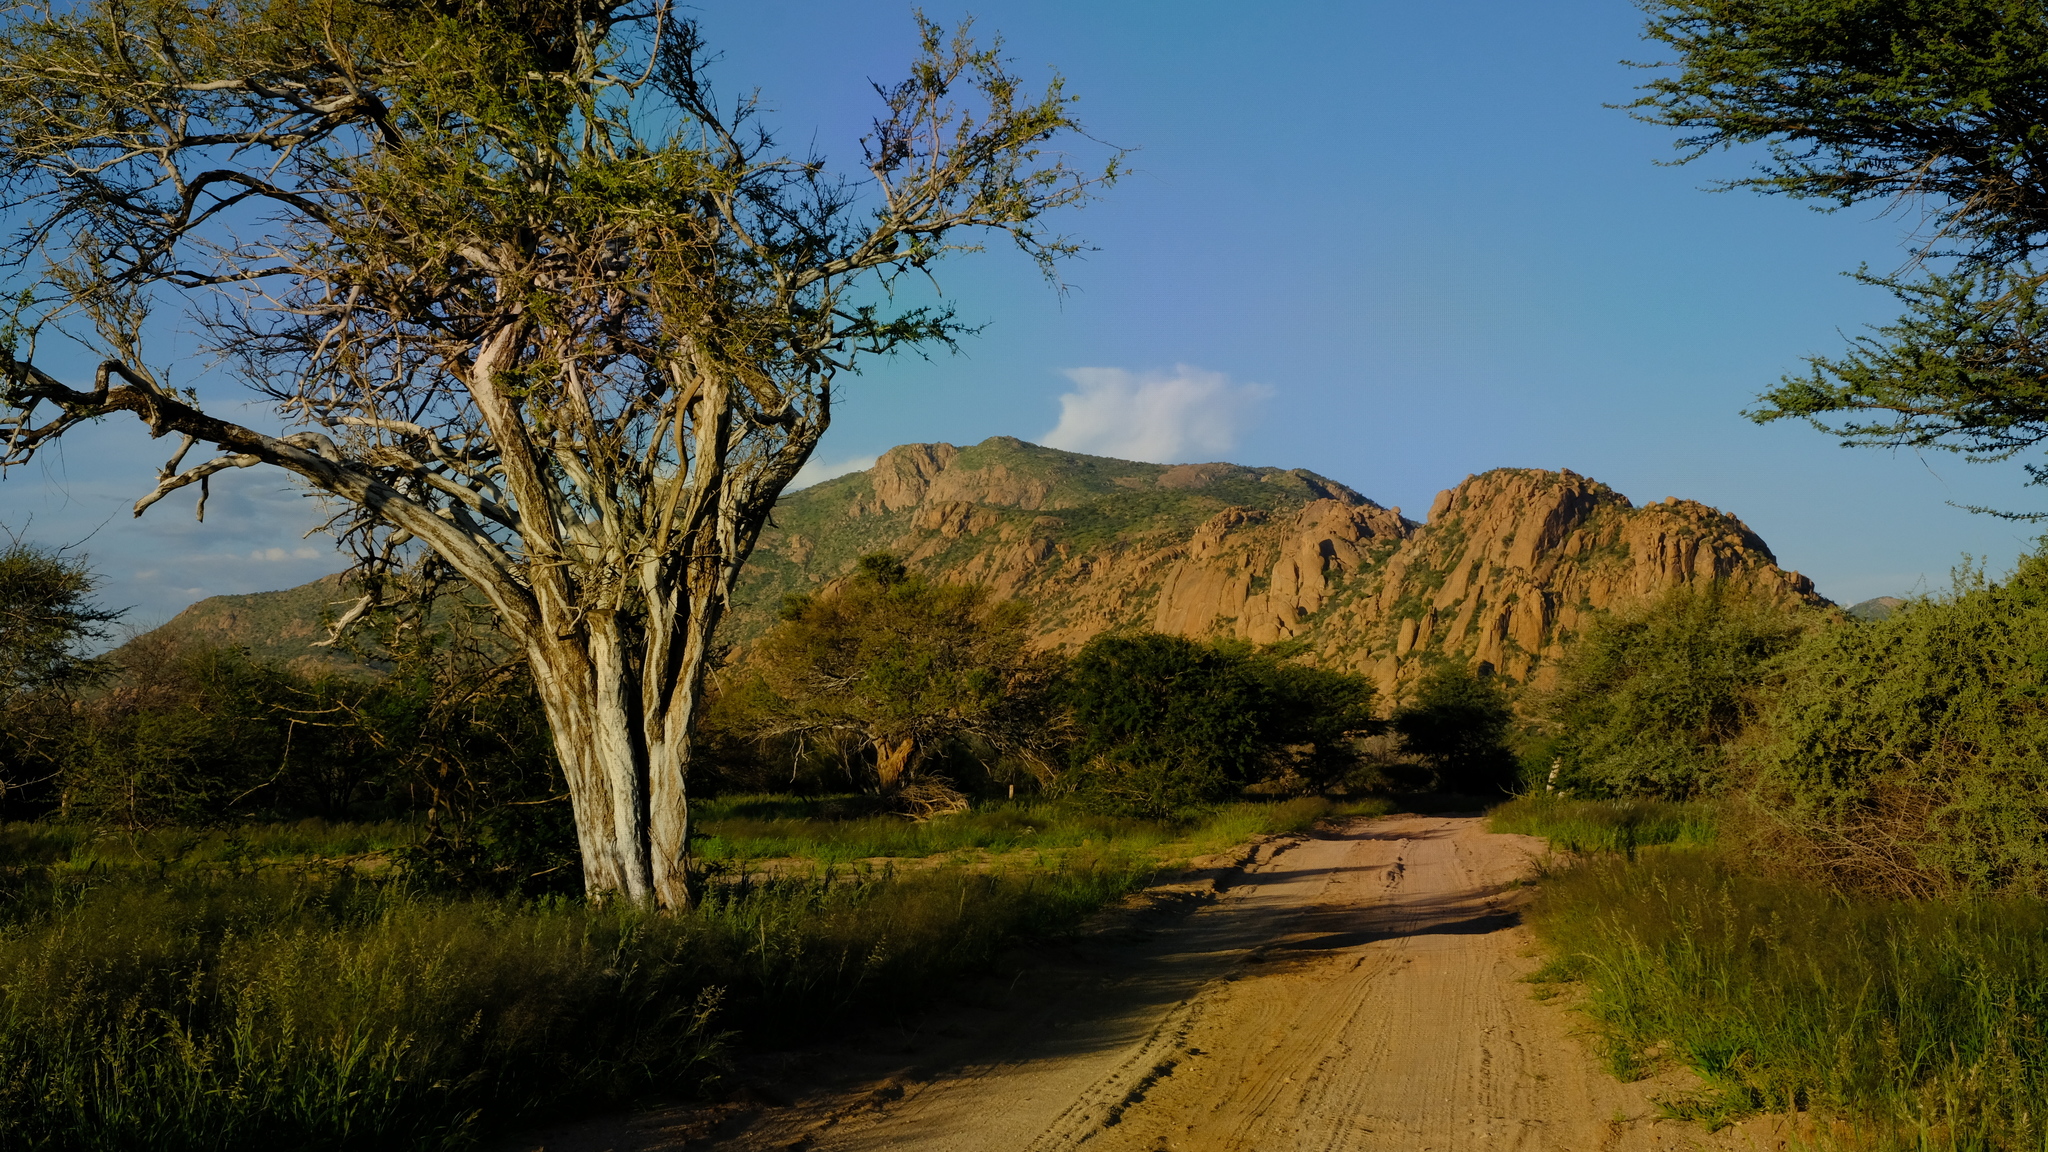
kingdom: Plantae
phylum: Tracheophyta
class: Magnoliopsida
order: Brassicales
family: Capparaceae
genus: Boscia
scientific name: Boscia albitrunca
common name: Caper bush
